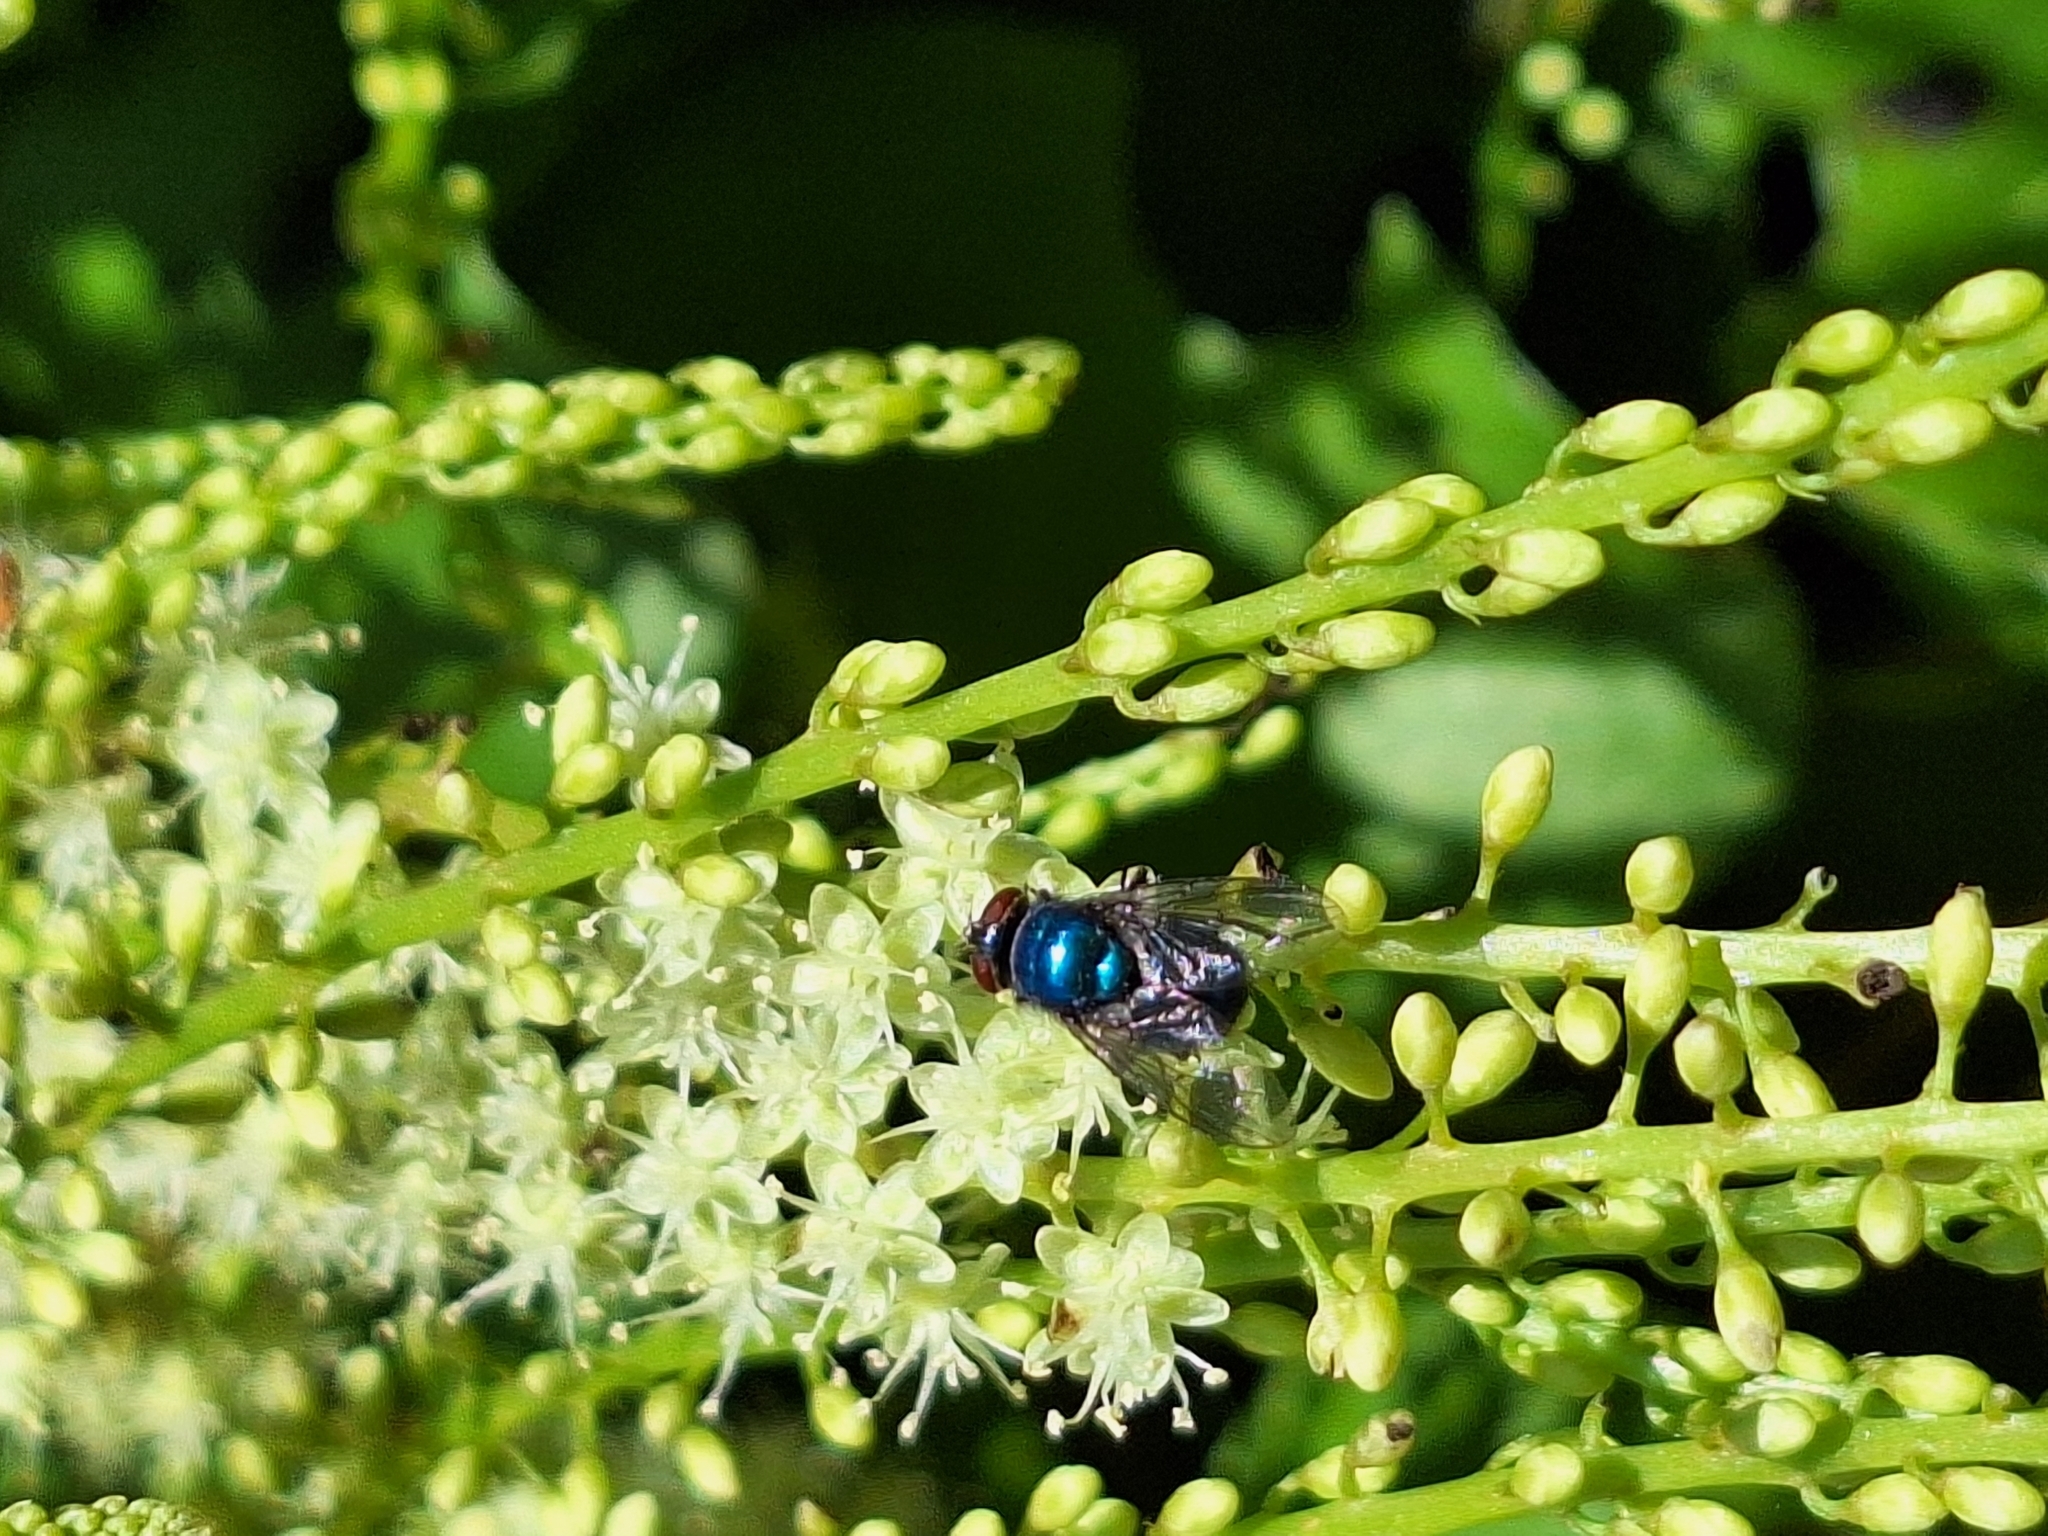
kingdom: Animalia
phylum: Arthropoda
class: Insecta
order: Diptera
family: Calliphoridae
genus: Lucilia
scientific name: Lucilia eximia
